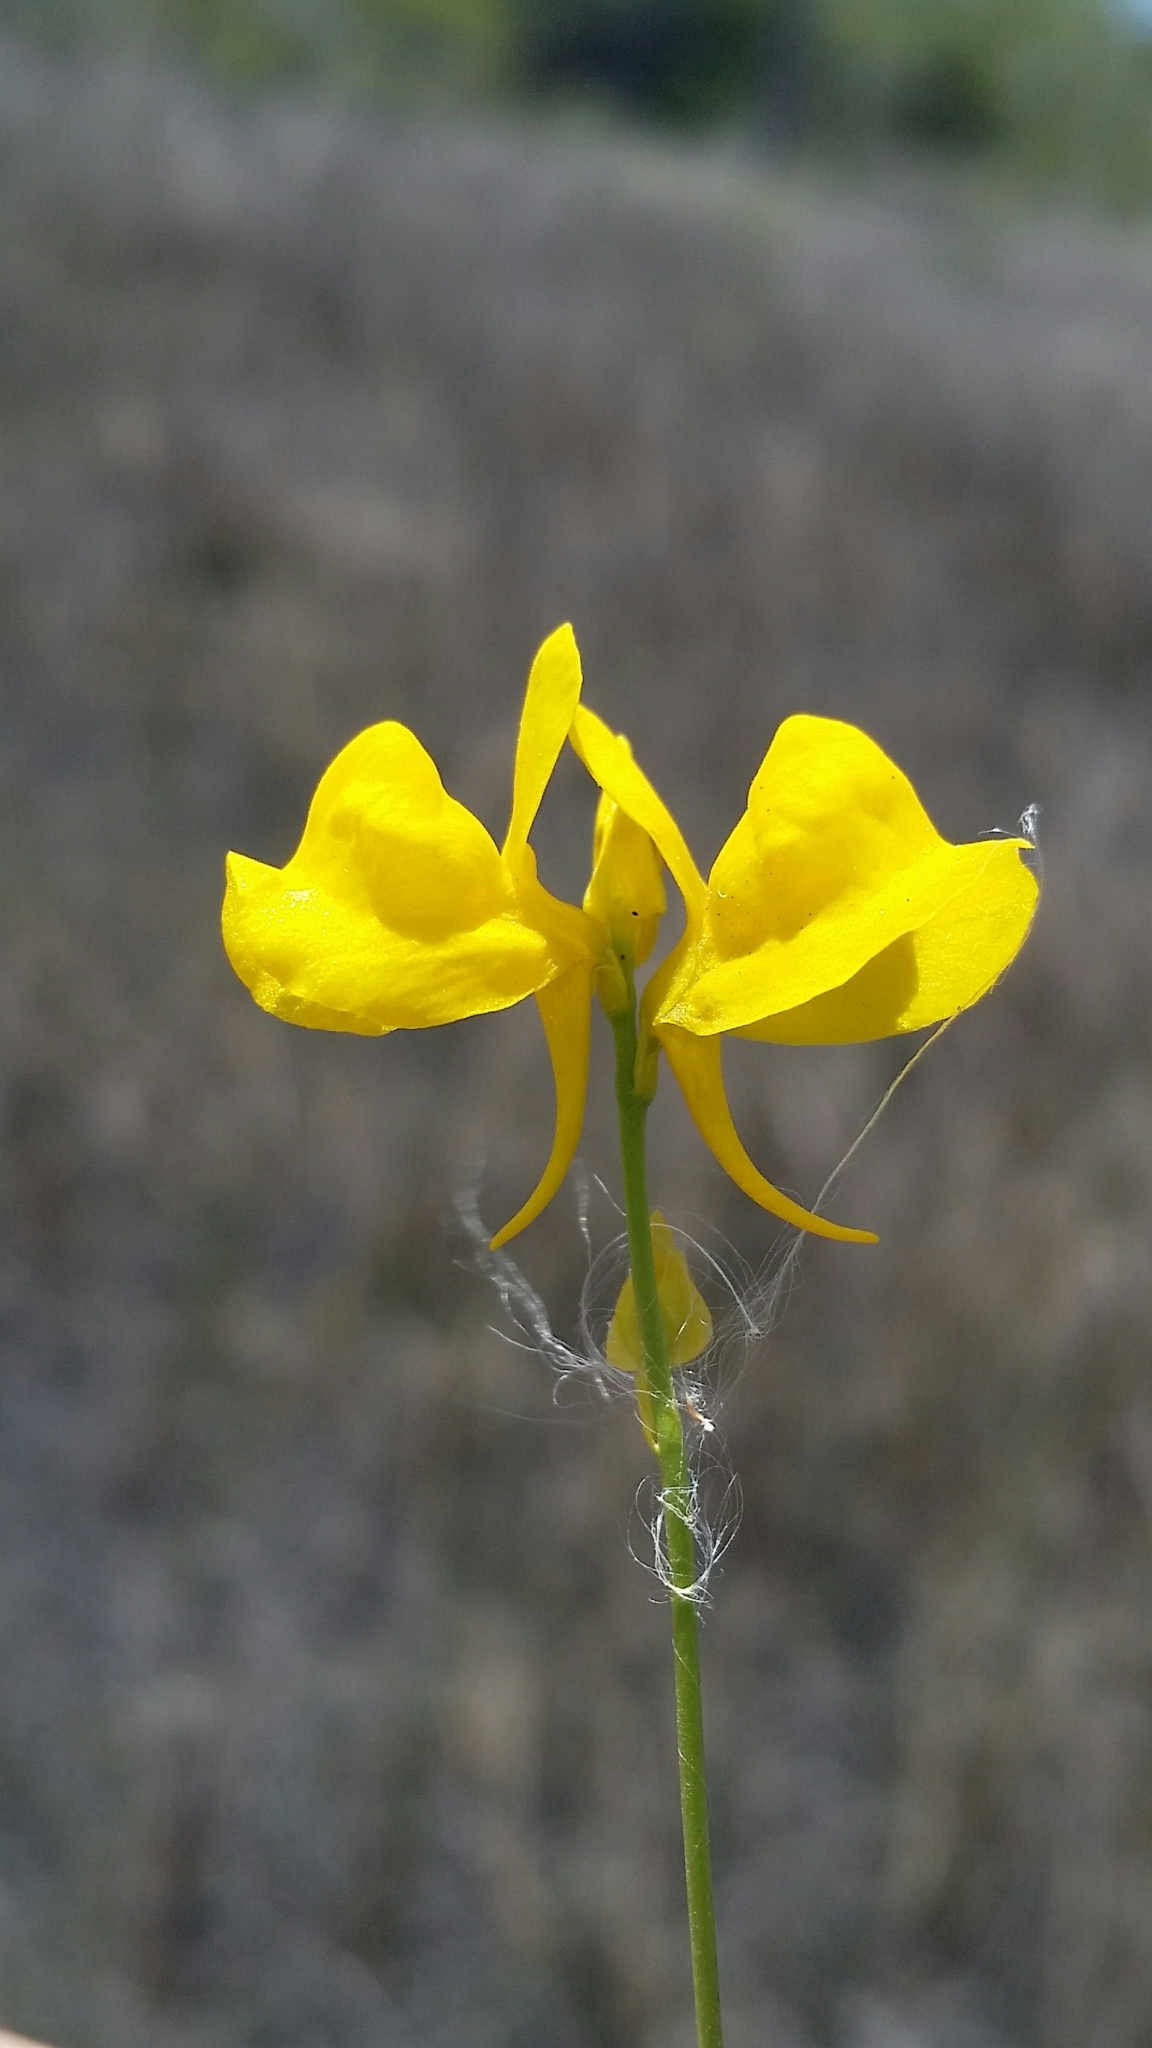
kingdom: Plantae
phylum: Tracheophyta
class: Magnoliopsida
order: Lamiales
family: Lentibulariaceae
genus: Utricularia
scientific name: Utricularia cornuta
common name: Horned bladderwort
